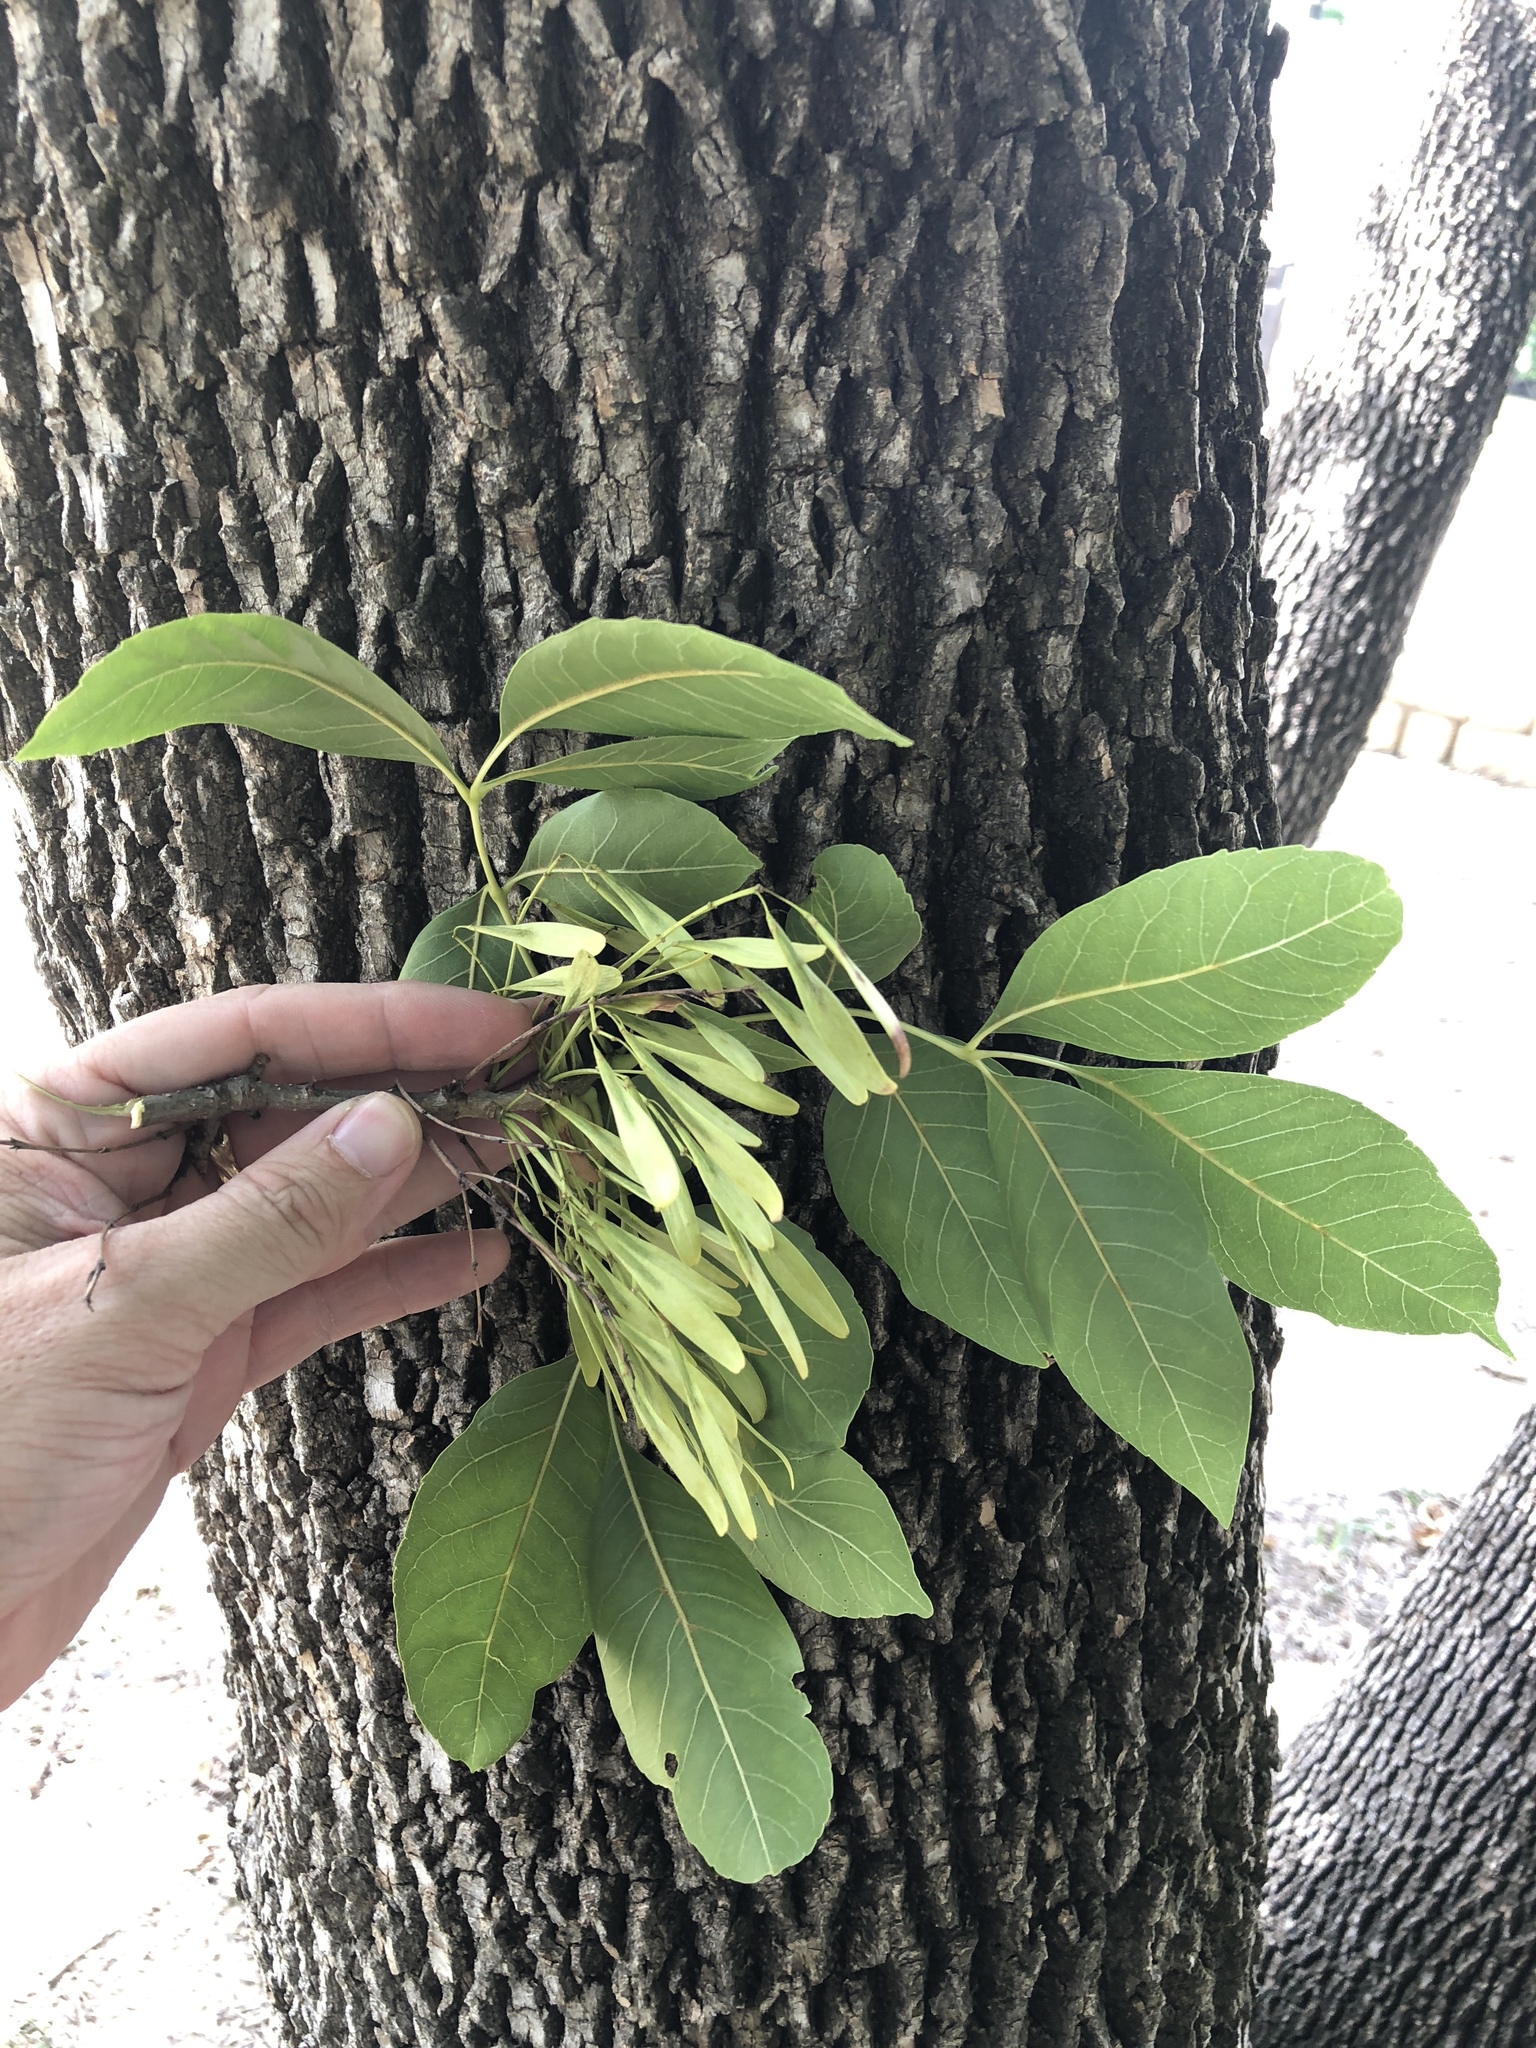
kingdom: Plantae
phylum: Tracheophyta
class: Magnoliopsida
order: Lamiales
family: Oleaceae
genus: Fraxinus
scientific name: Fraxinus pennsylvanica
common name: Green ash
